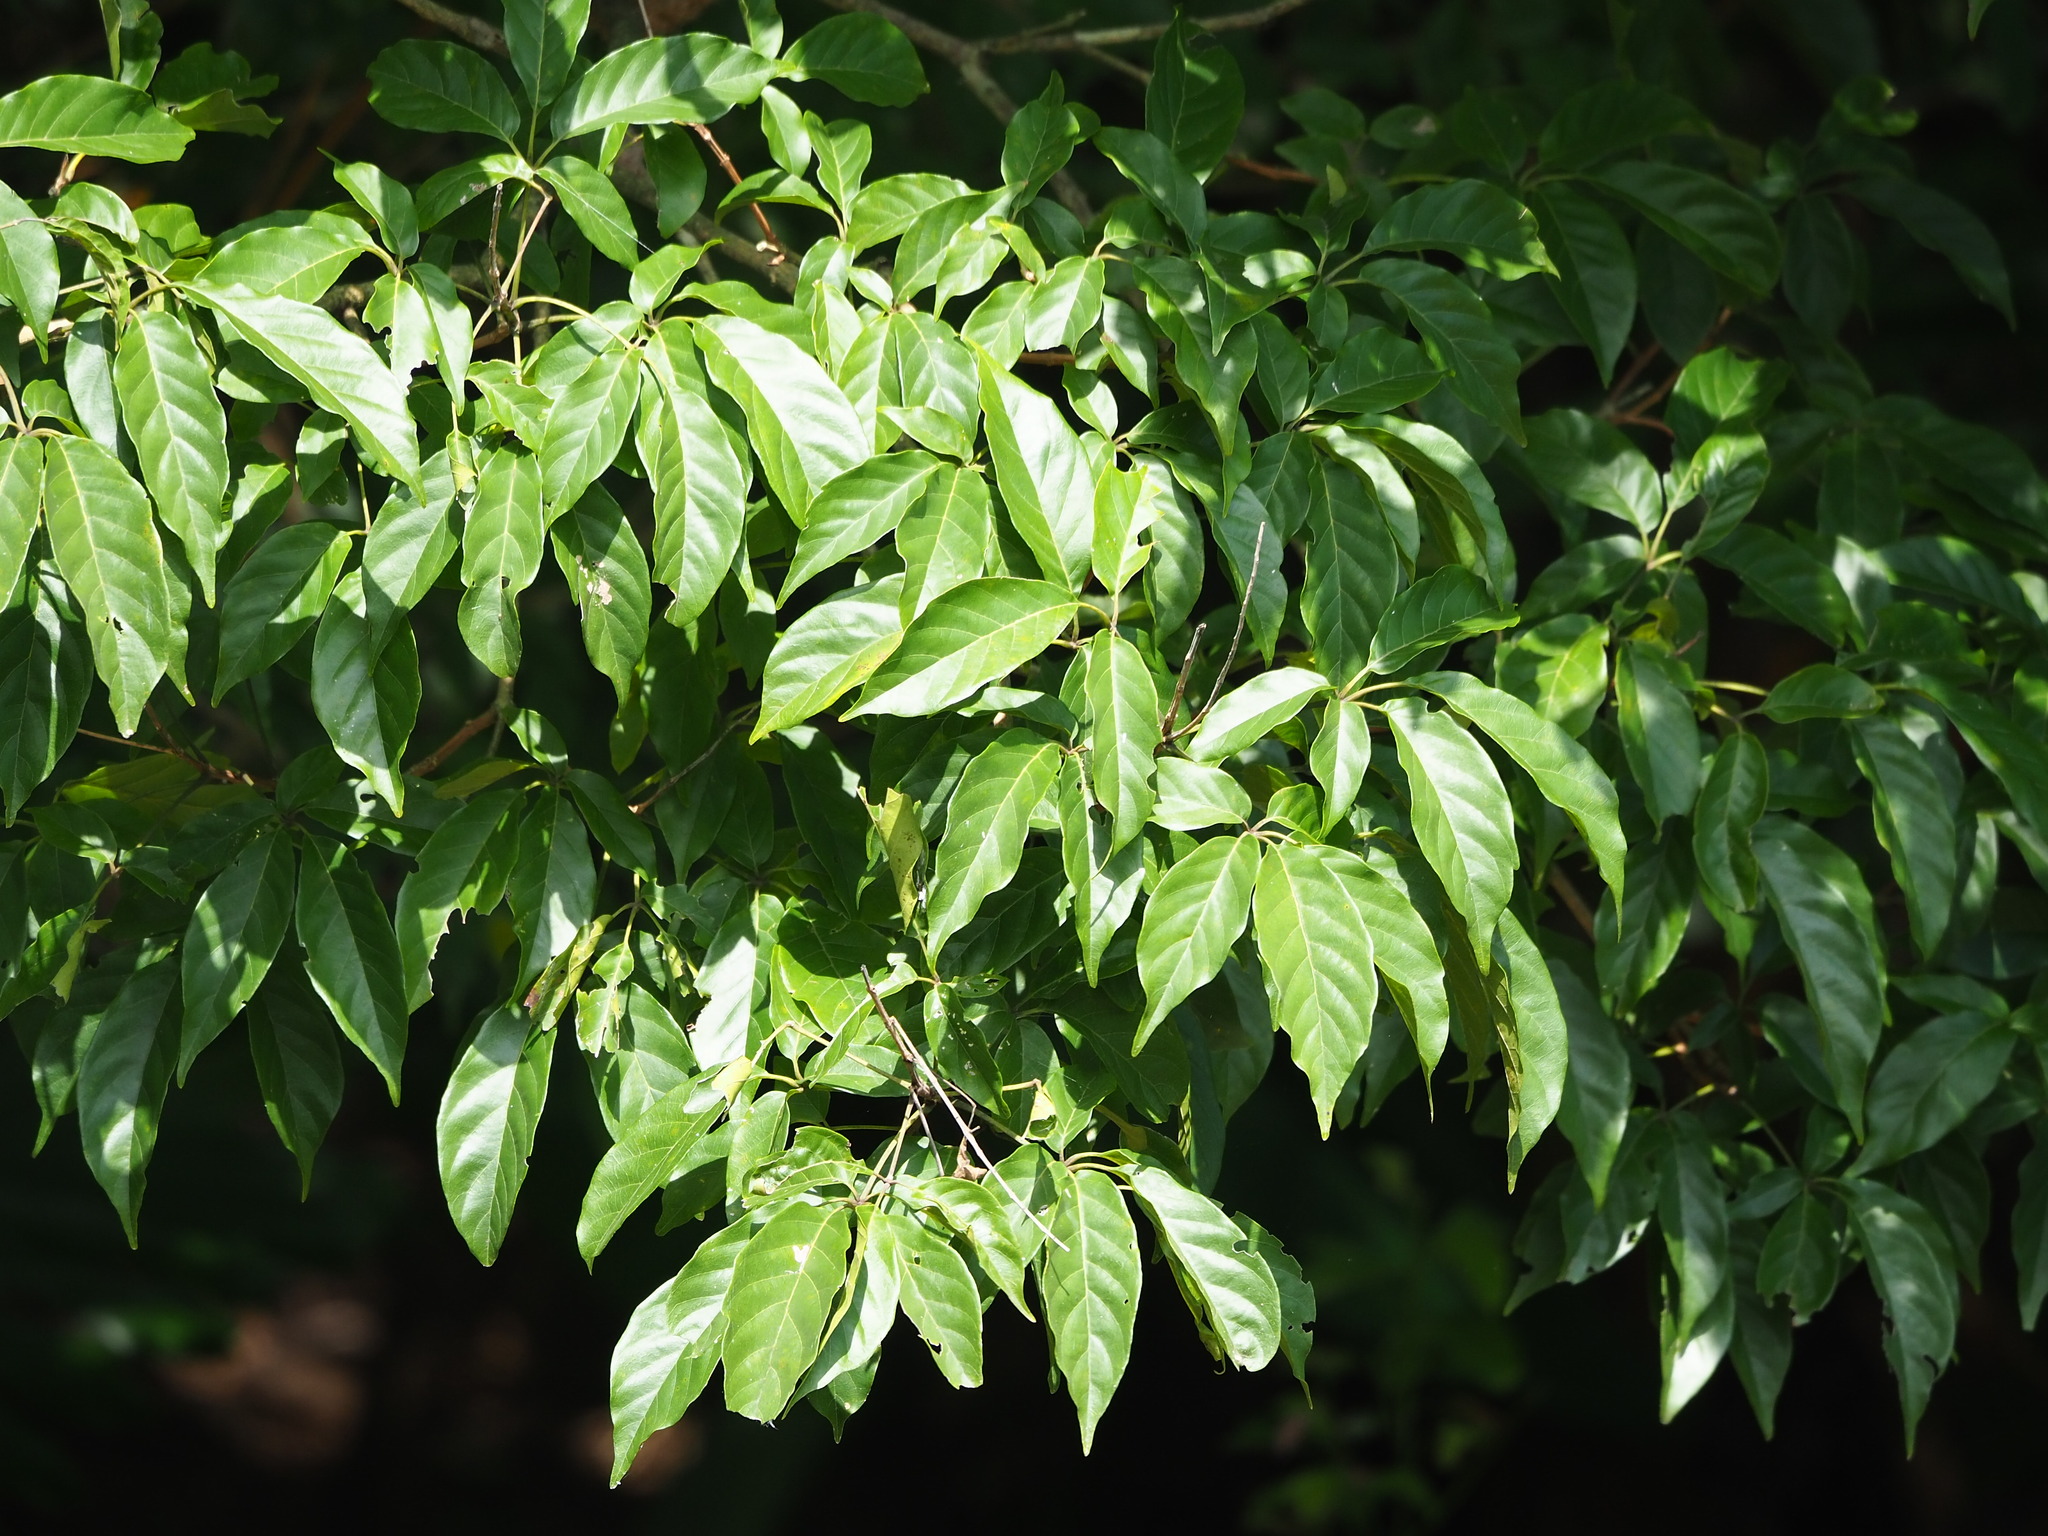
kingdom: Plantae
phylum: Tracheophyta
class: Magnoliopsida
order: Lamiales
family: Lamiaceae
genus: Vitex
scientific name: Vitex quinata
